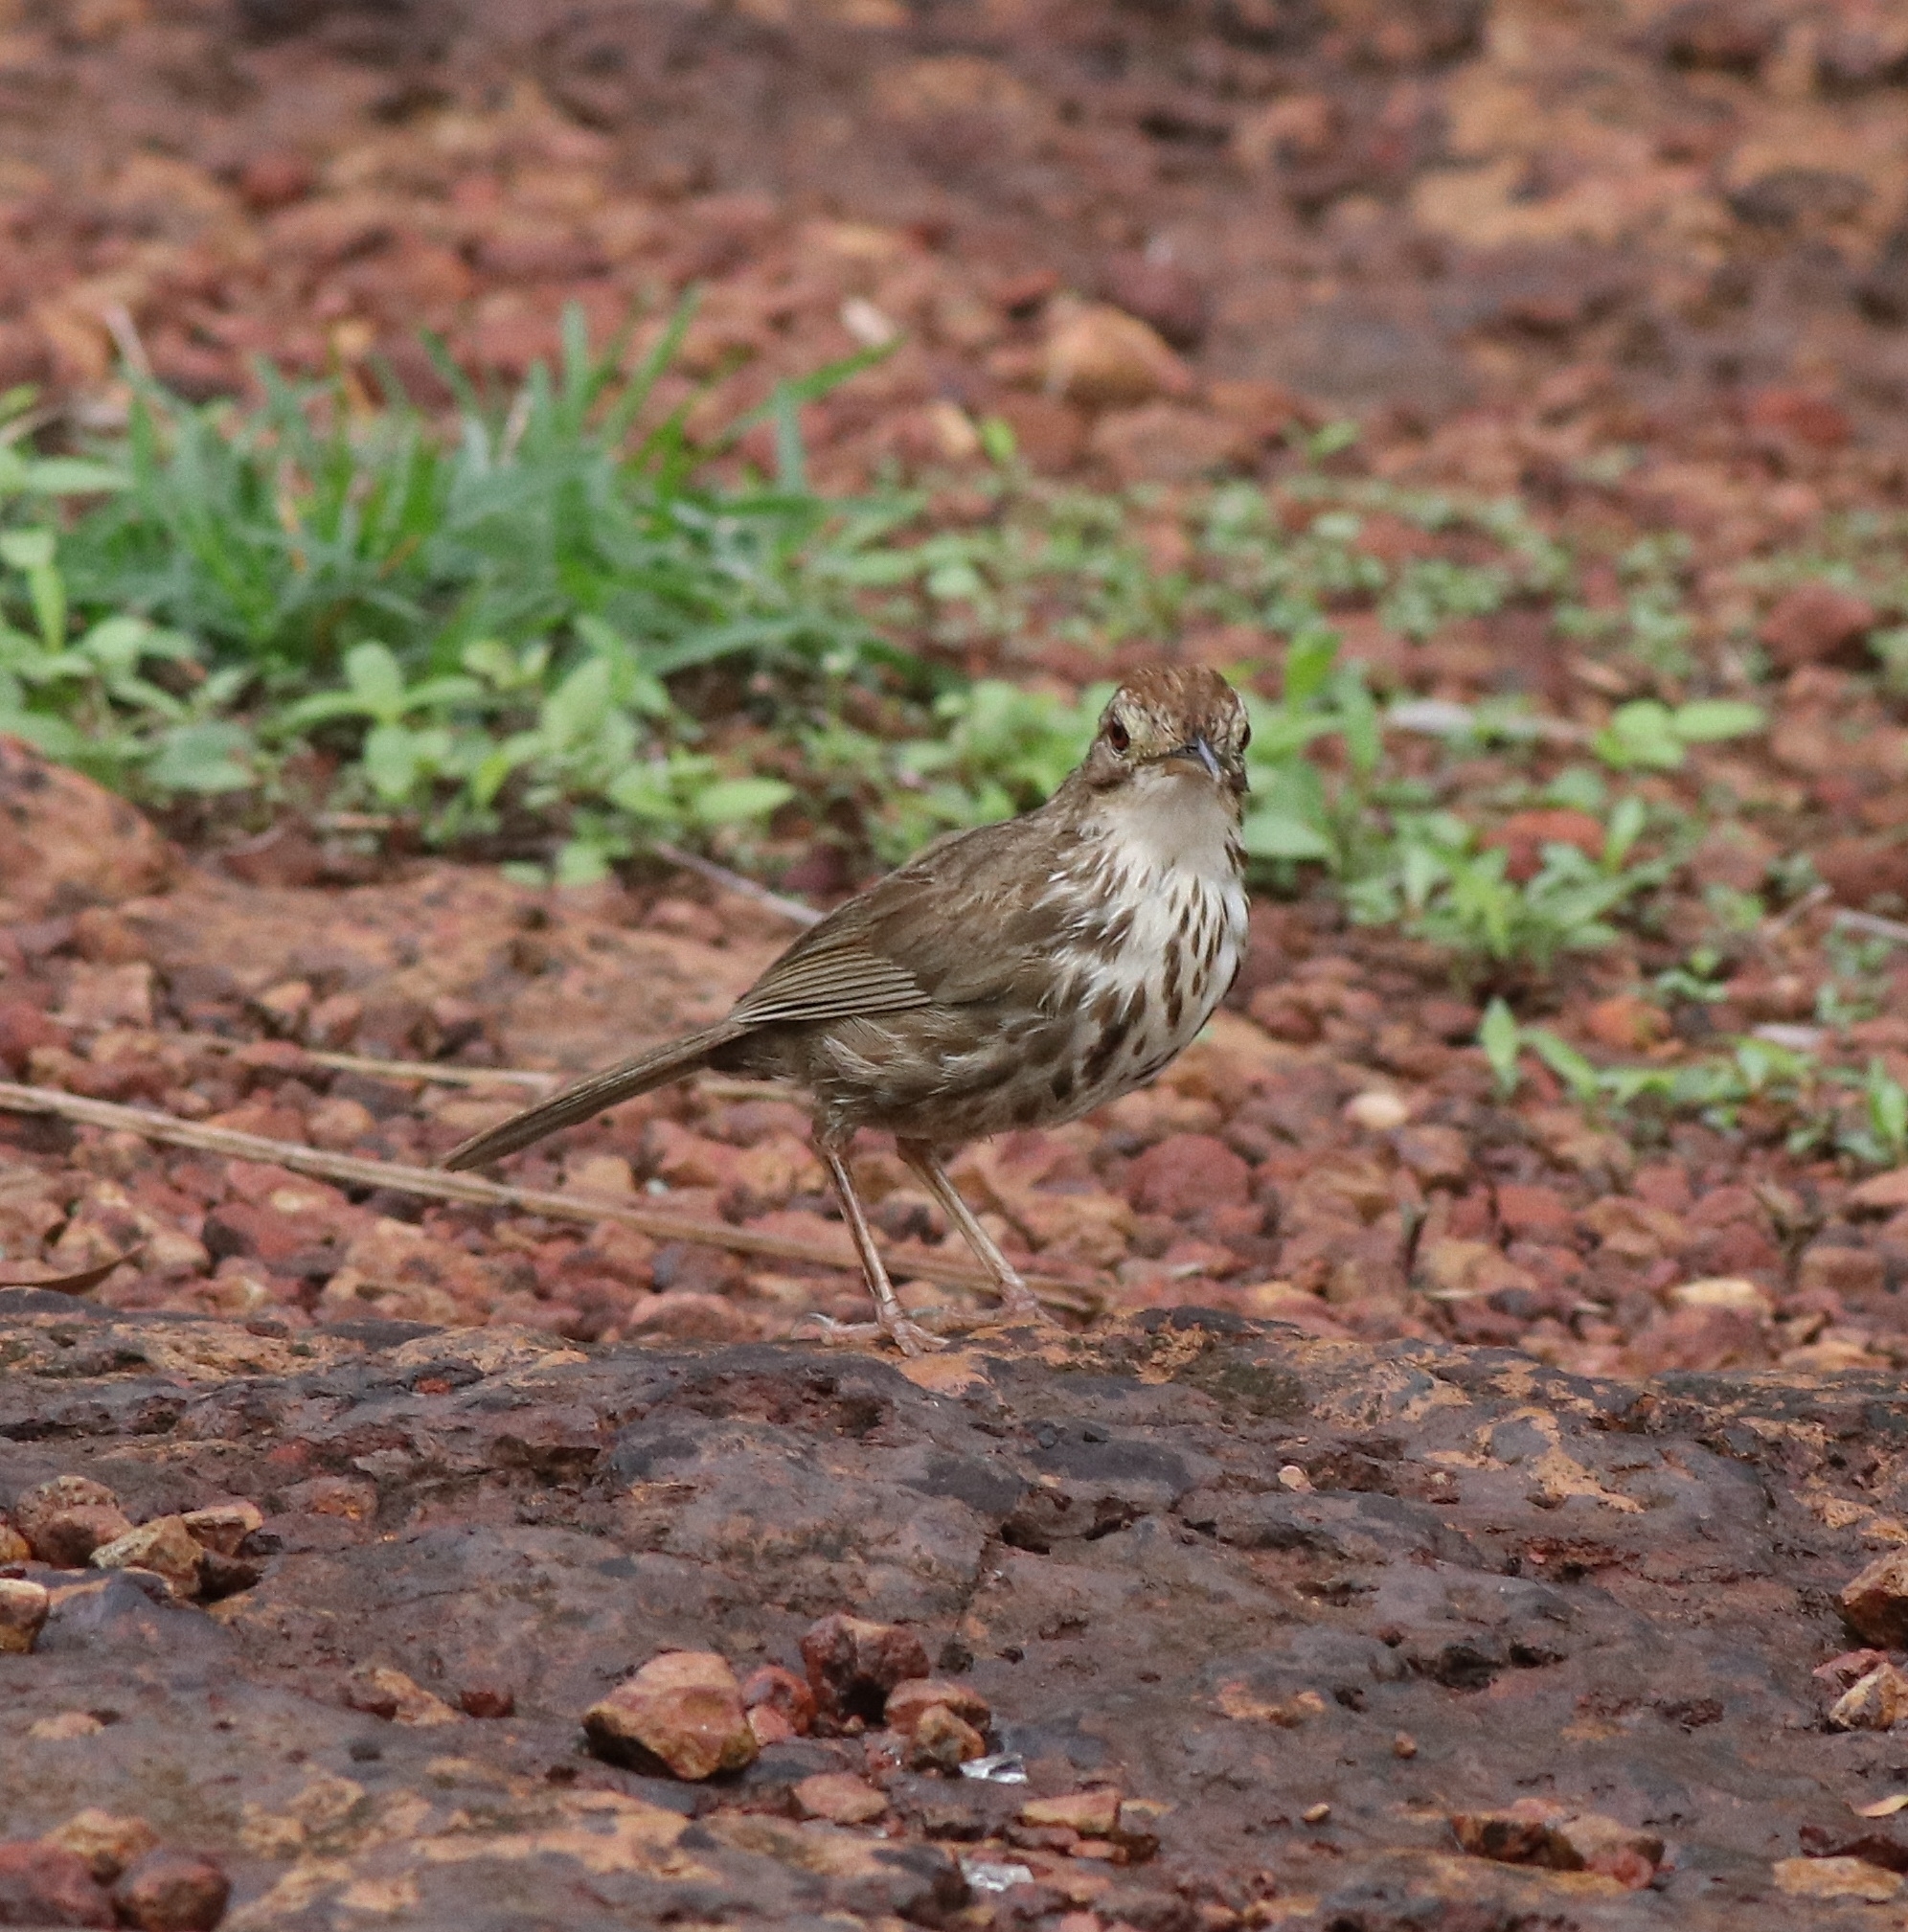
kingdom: Animalia
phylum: Chordata
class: Aves
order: Passeriformes
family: Pellorneidae
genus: Pellorneum
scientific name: Pellorneum ruficeps
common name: Puff-throated babbler
